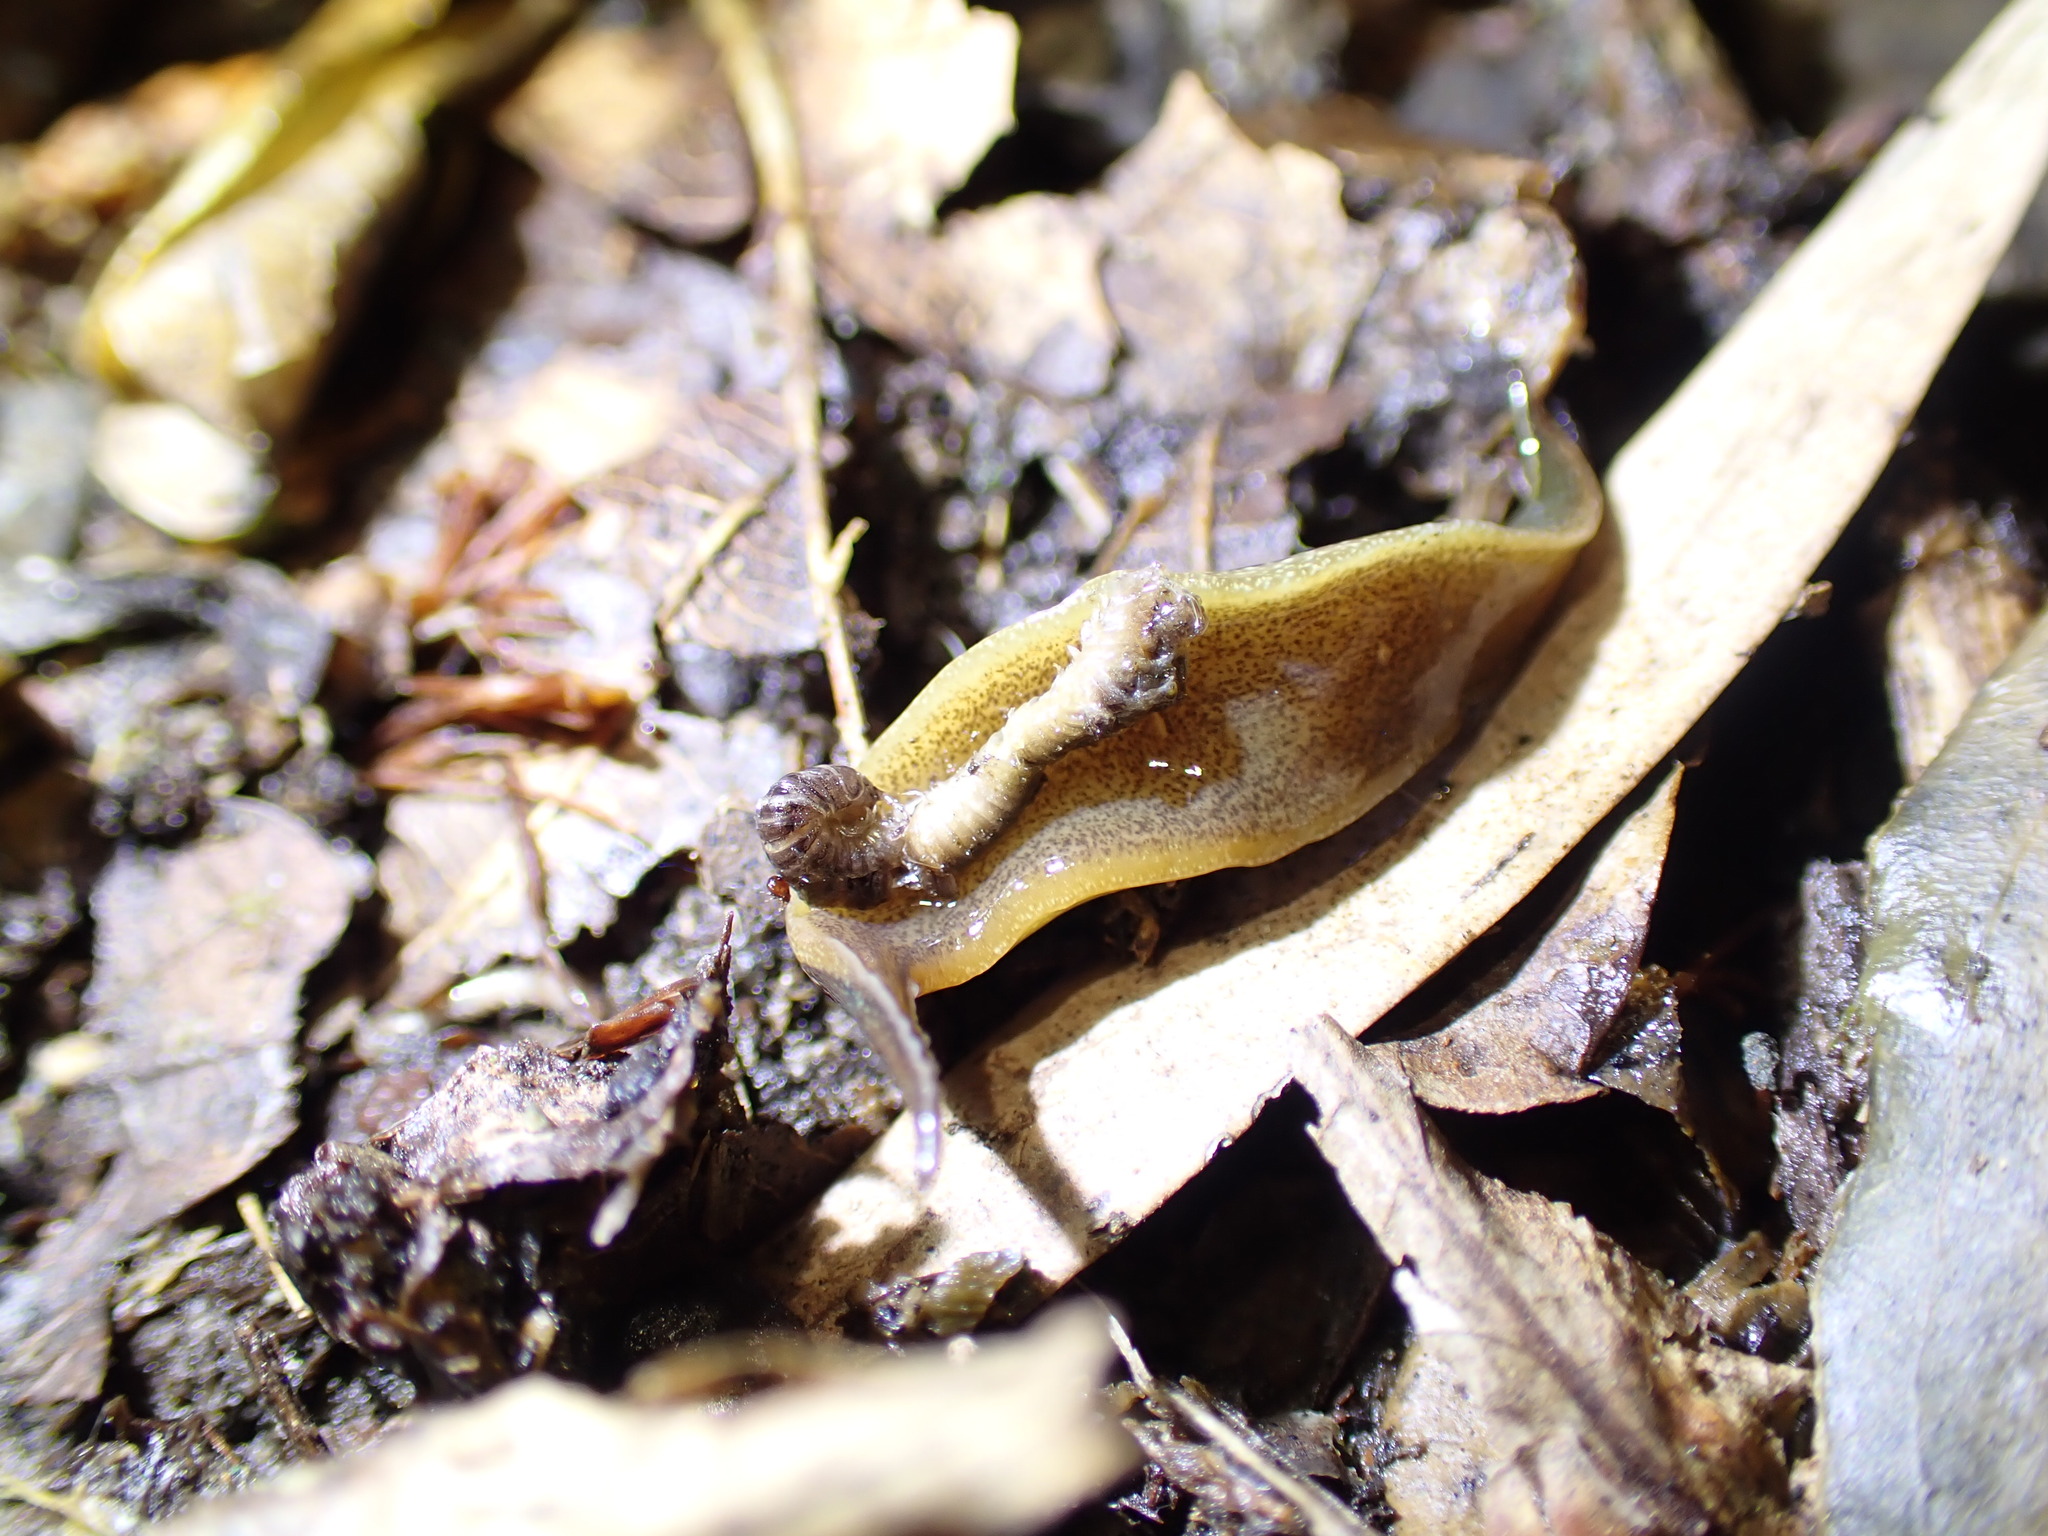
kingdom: Animalia
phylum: Platyhelminthes
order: Tricladida
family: Geoplanidae
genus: Newzealandia
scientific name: Newzealandia graffii
